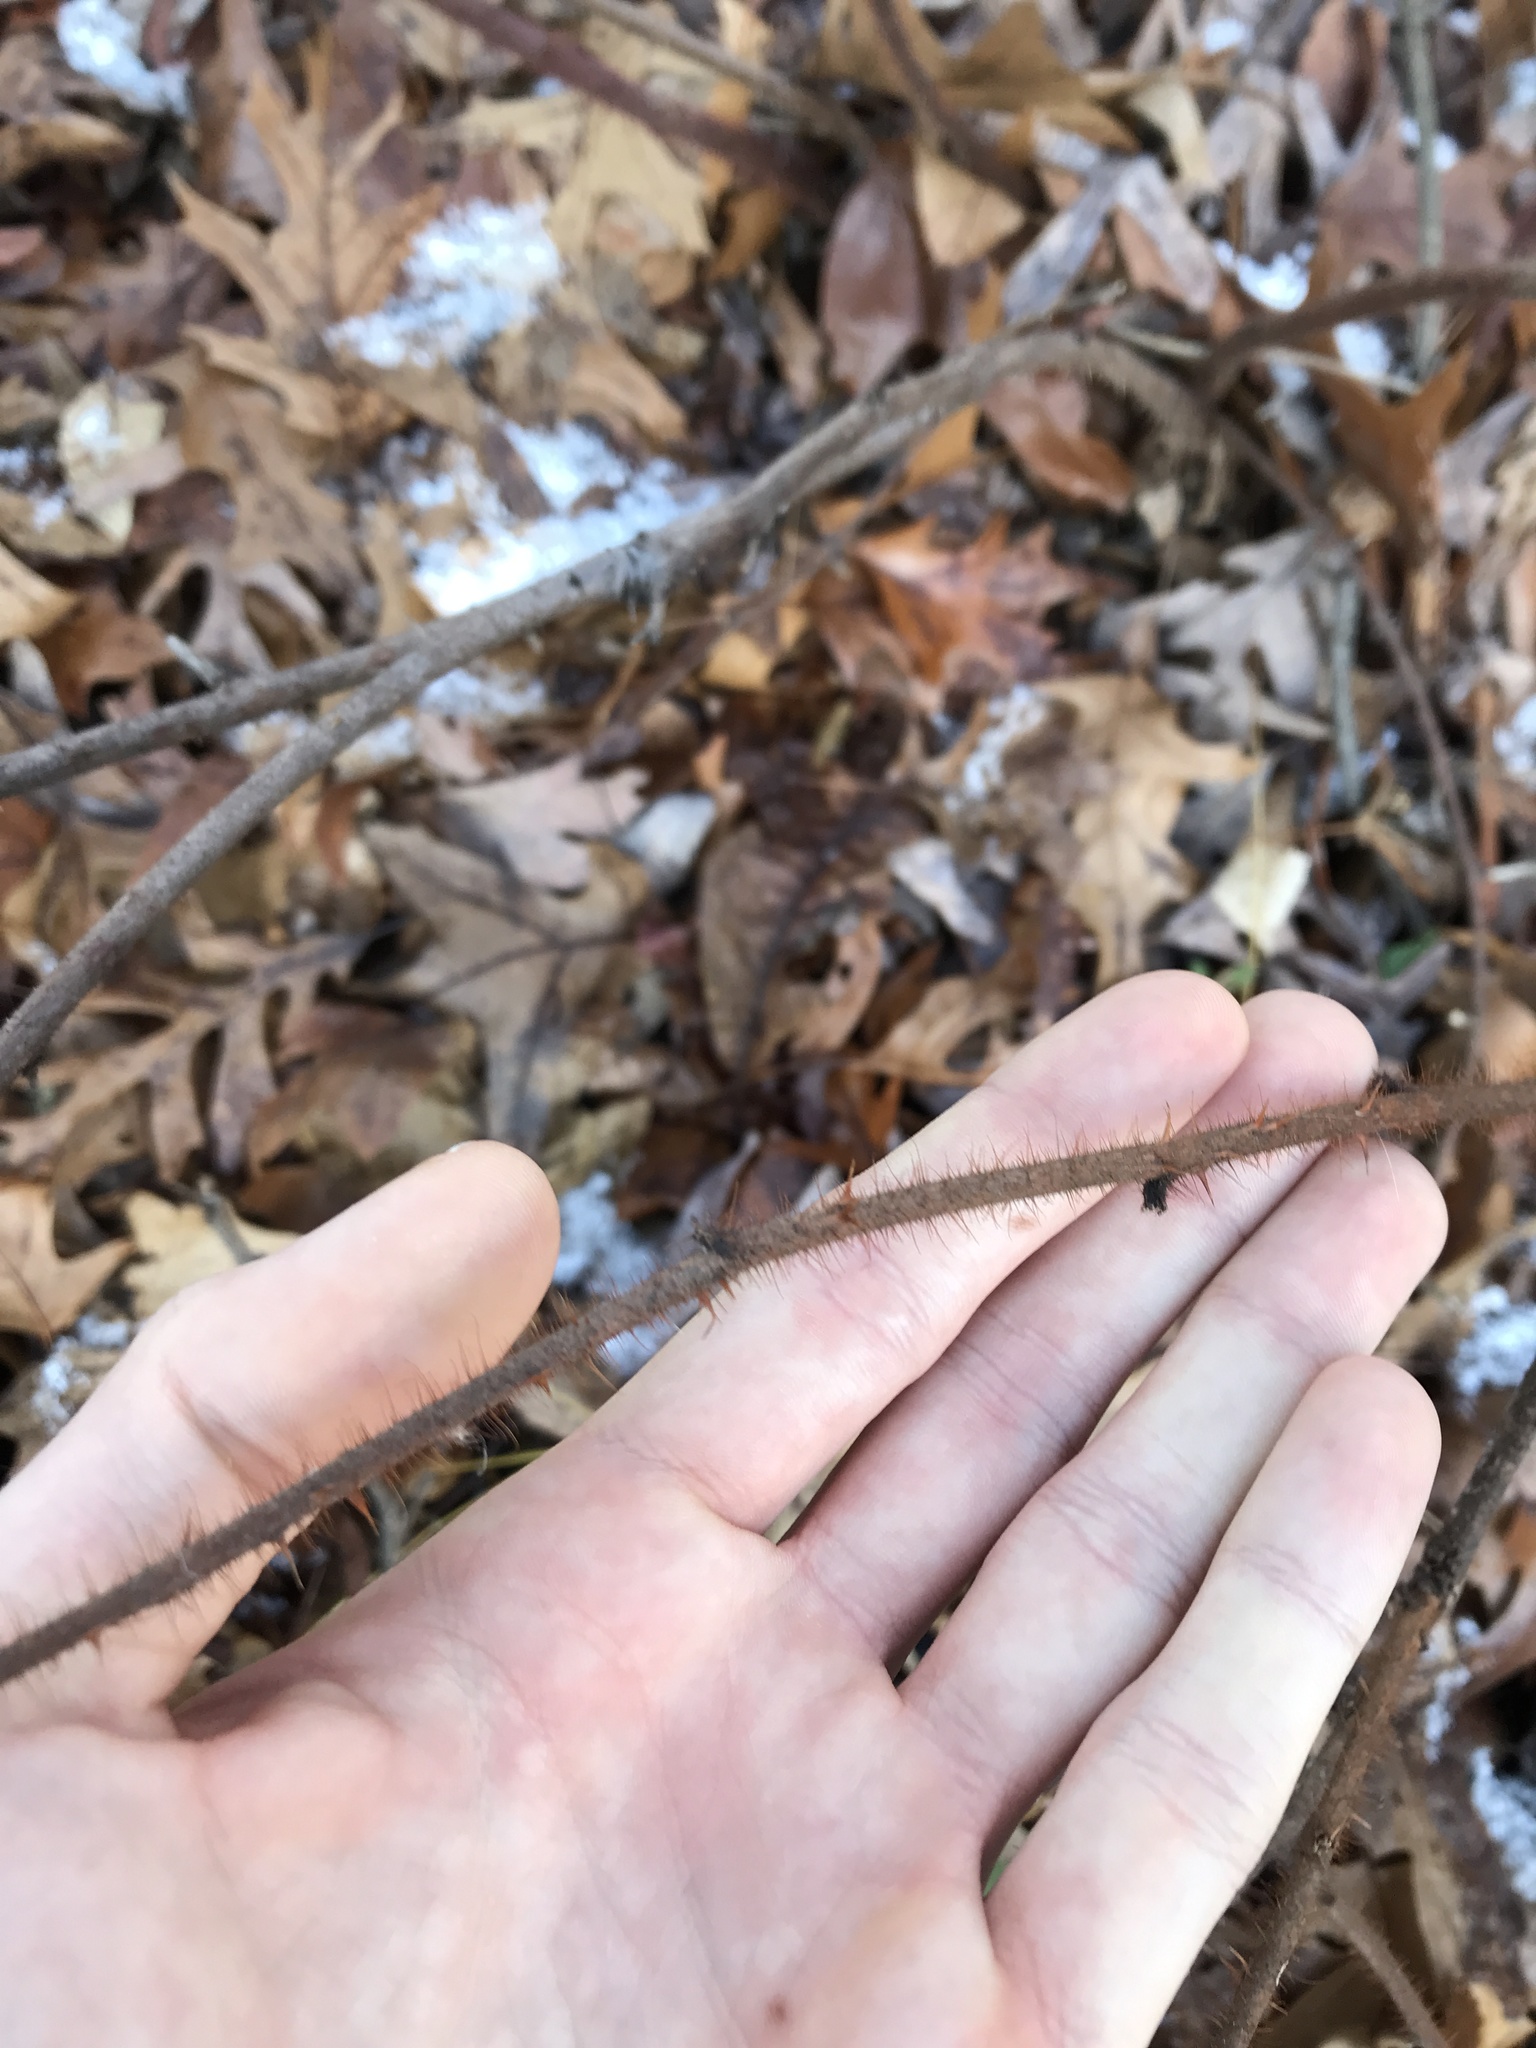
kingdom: Plantae
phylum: Tracheophyta
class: Magnoliopsida
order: Rosales
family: Rosaceae
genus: Rubus
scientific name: Rubus phoenicolasius
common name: Japanese wineberry
